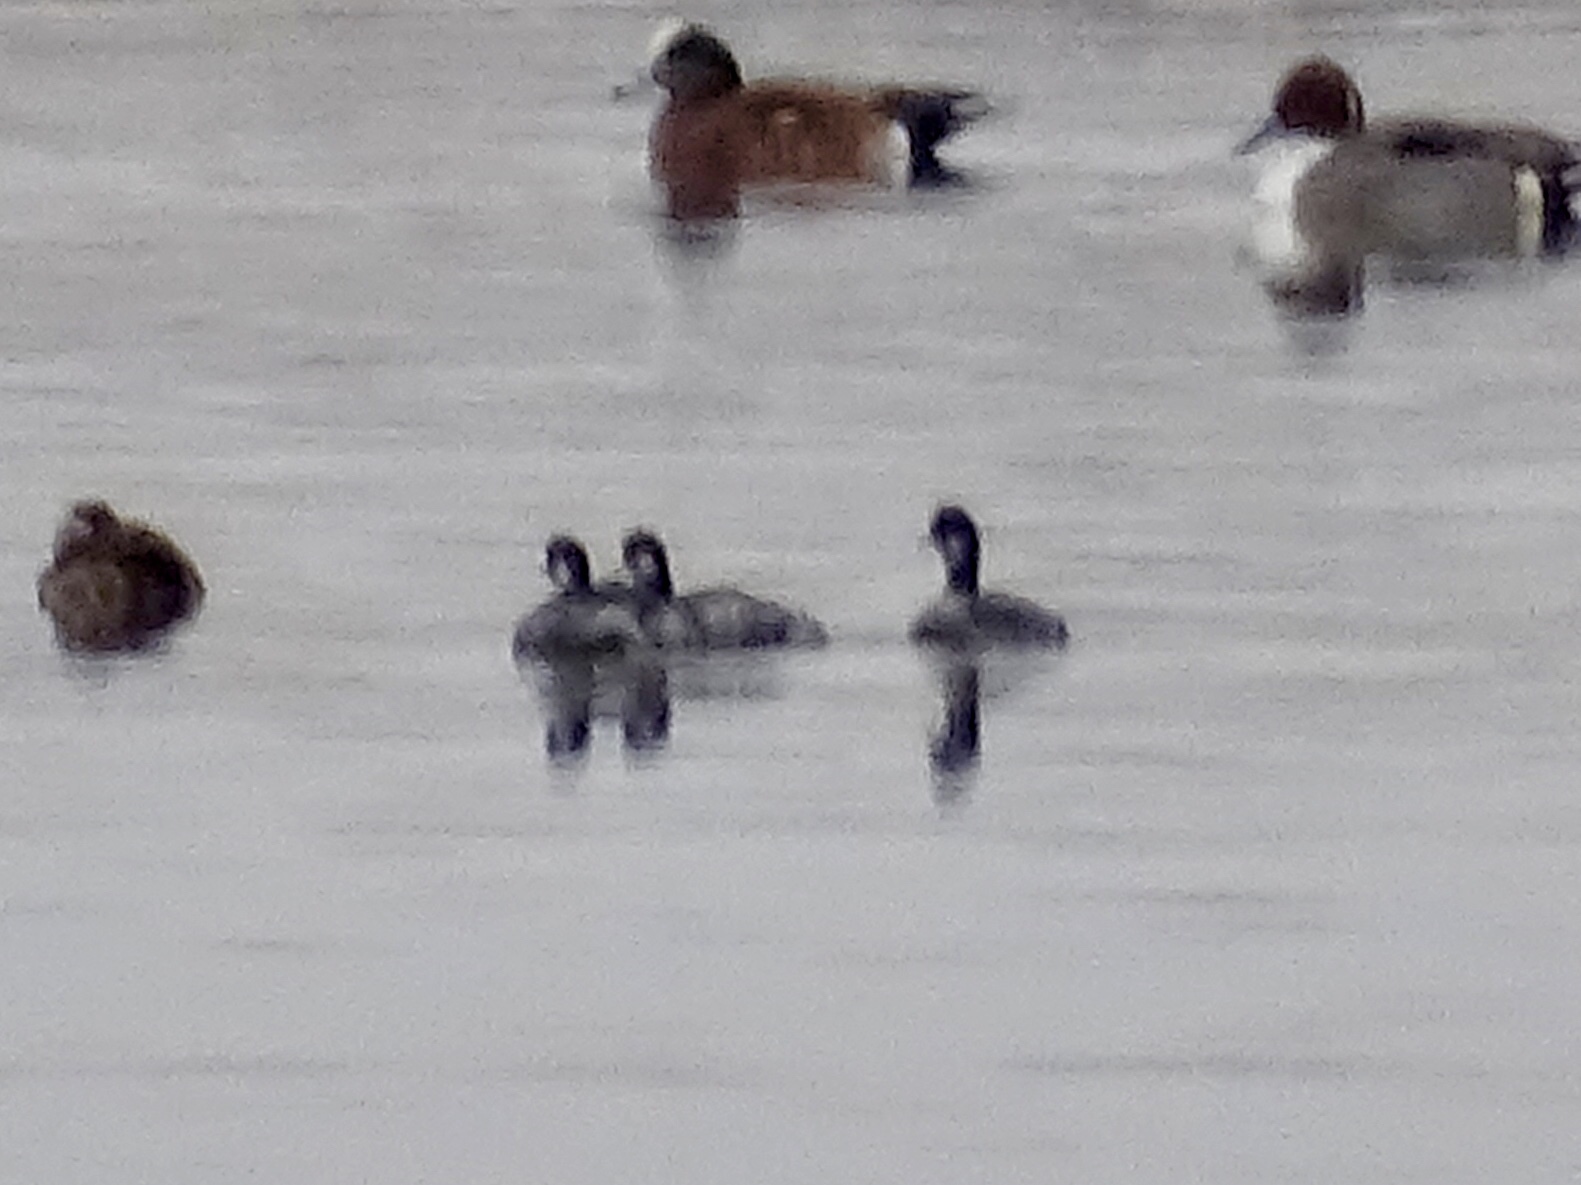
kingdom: Animalia
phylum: Chordata
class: Aves
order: Podicipediformes
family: Podicipedidae
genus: Podiceps
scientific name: Podiceps nigricollis
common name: Black-necked grebe
